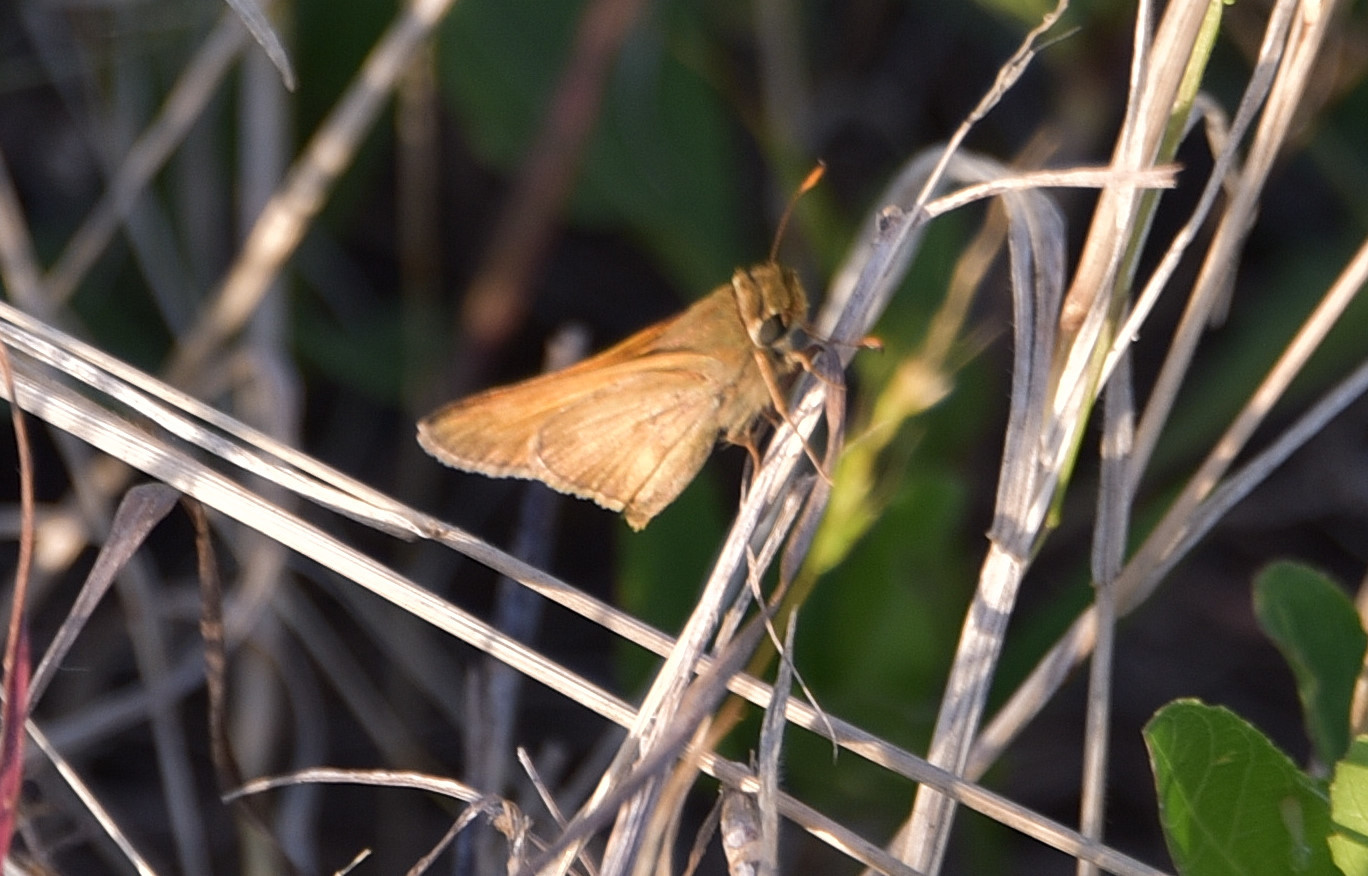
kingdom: Animalia
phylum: Arthropoda
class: Insecta
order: Lepidoptera
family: Hesperiidae
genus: Atalopedes
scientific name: Atalopedes
